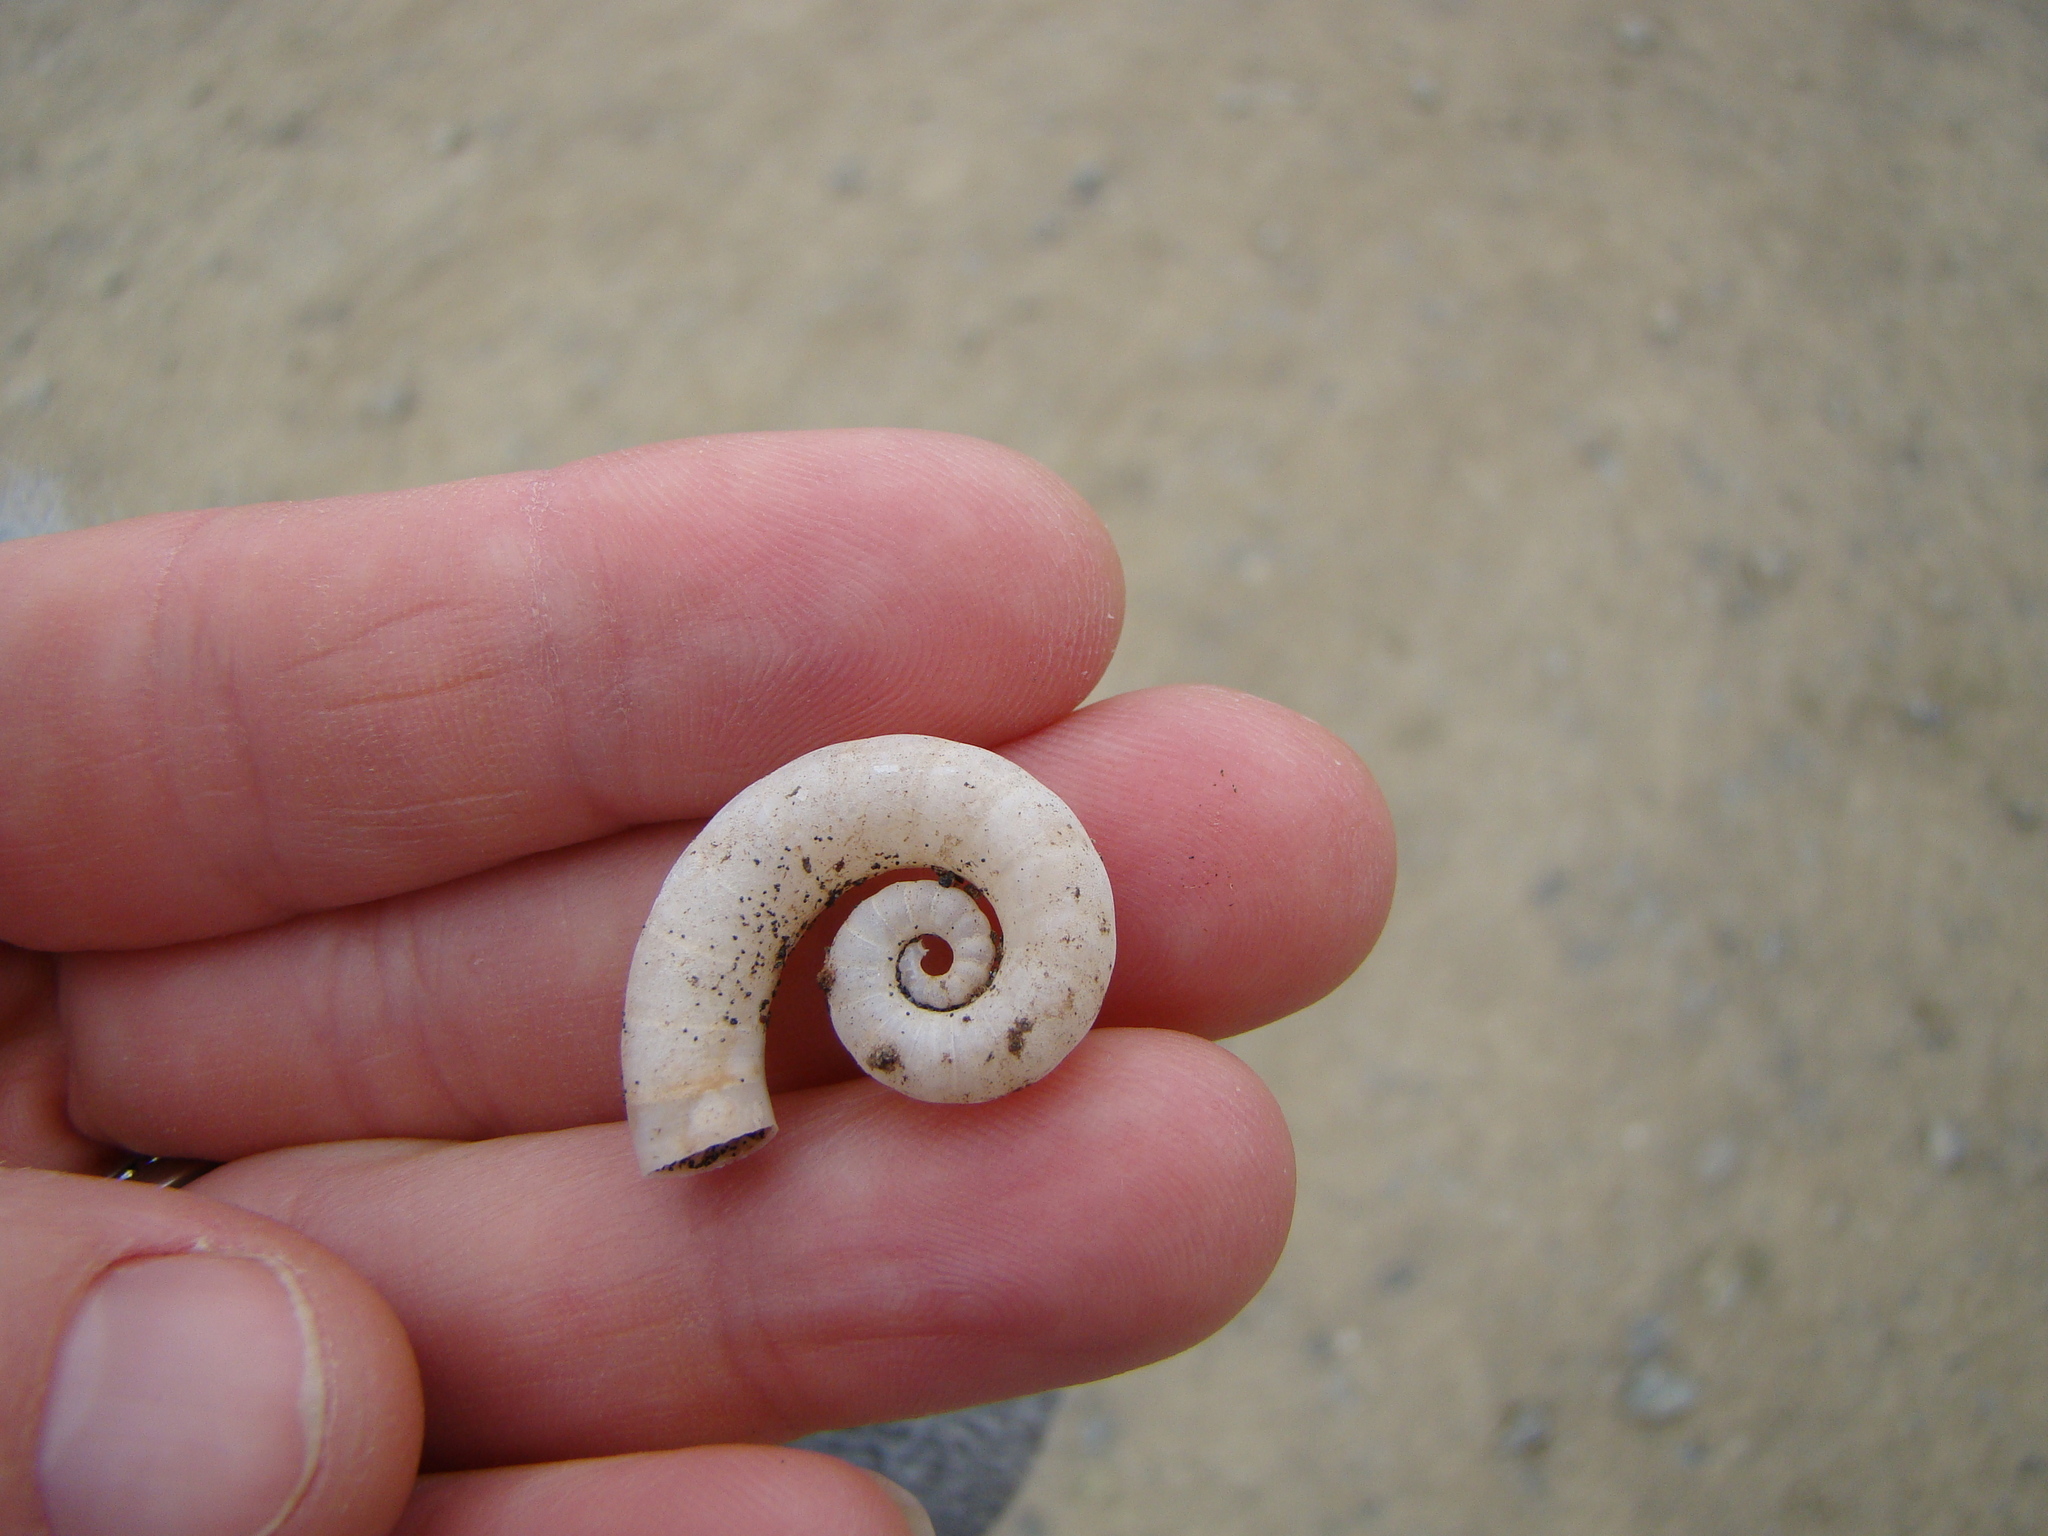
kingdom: Animalia
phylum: Mollusca
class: Cephalopoda
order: Spirulida
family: Spirulidae
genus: Spirula
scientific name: Spirula spirula
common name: Ram's horn squid
